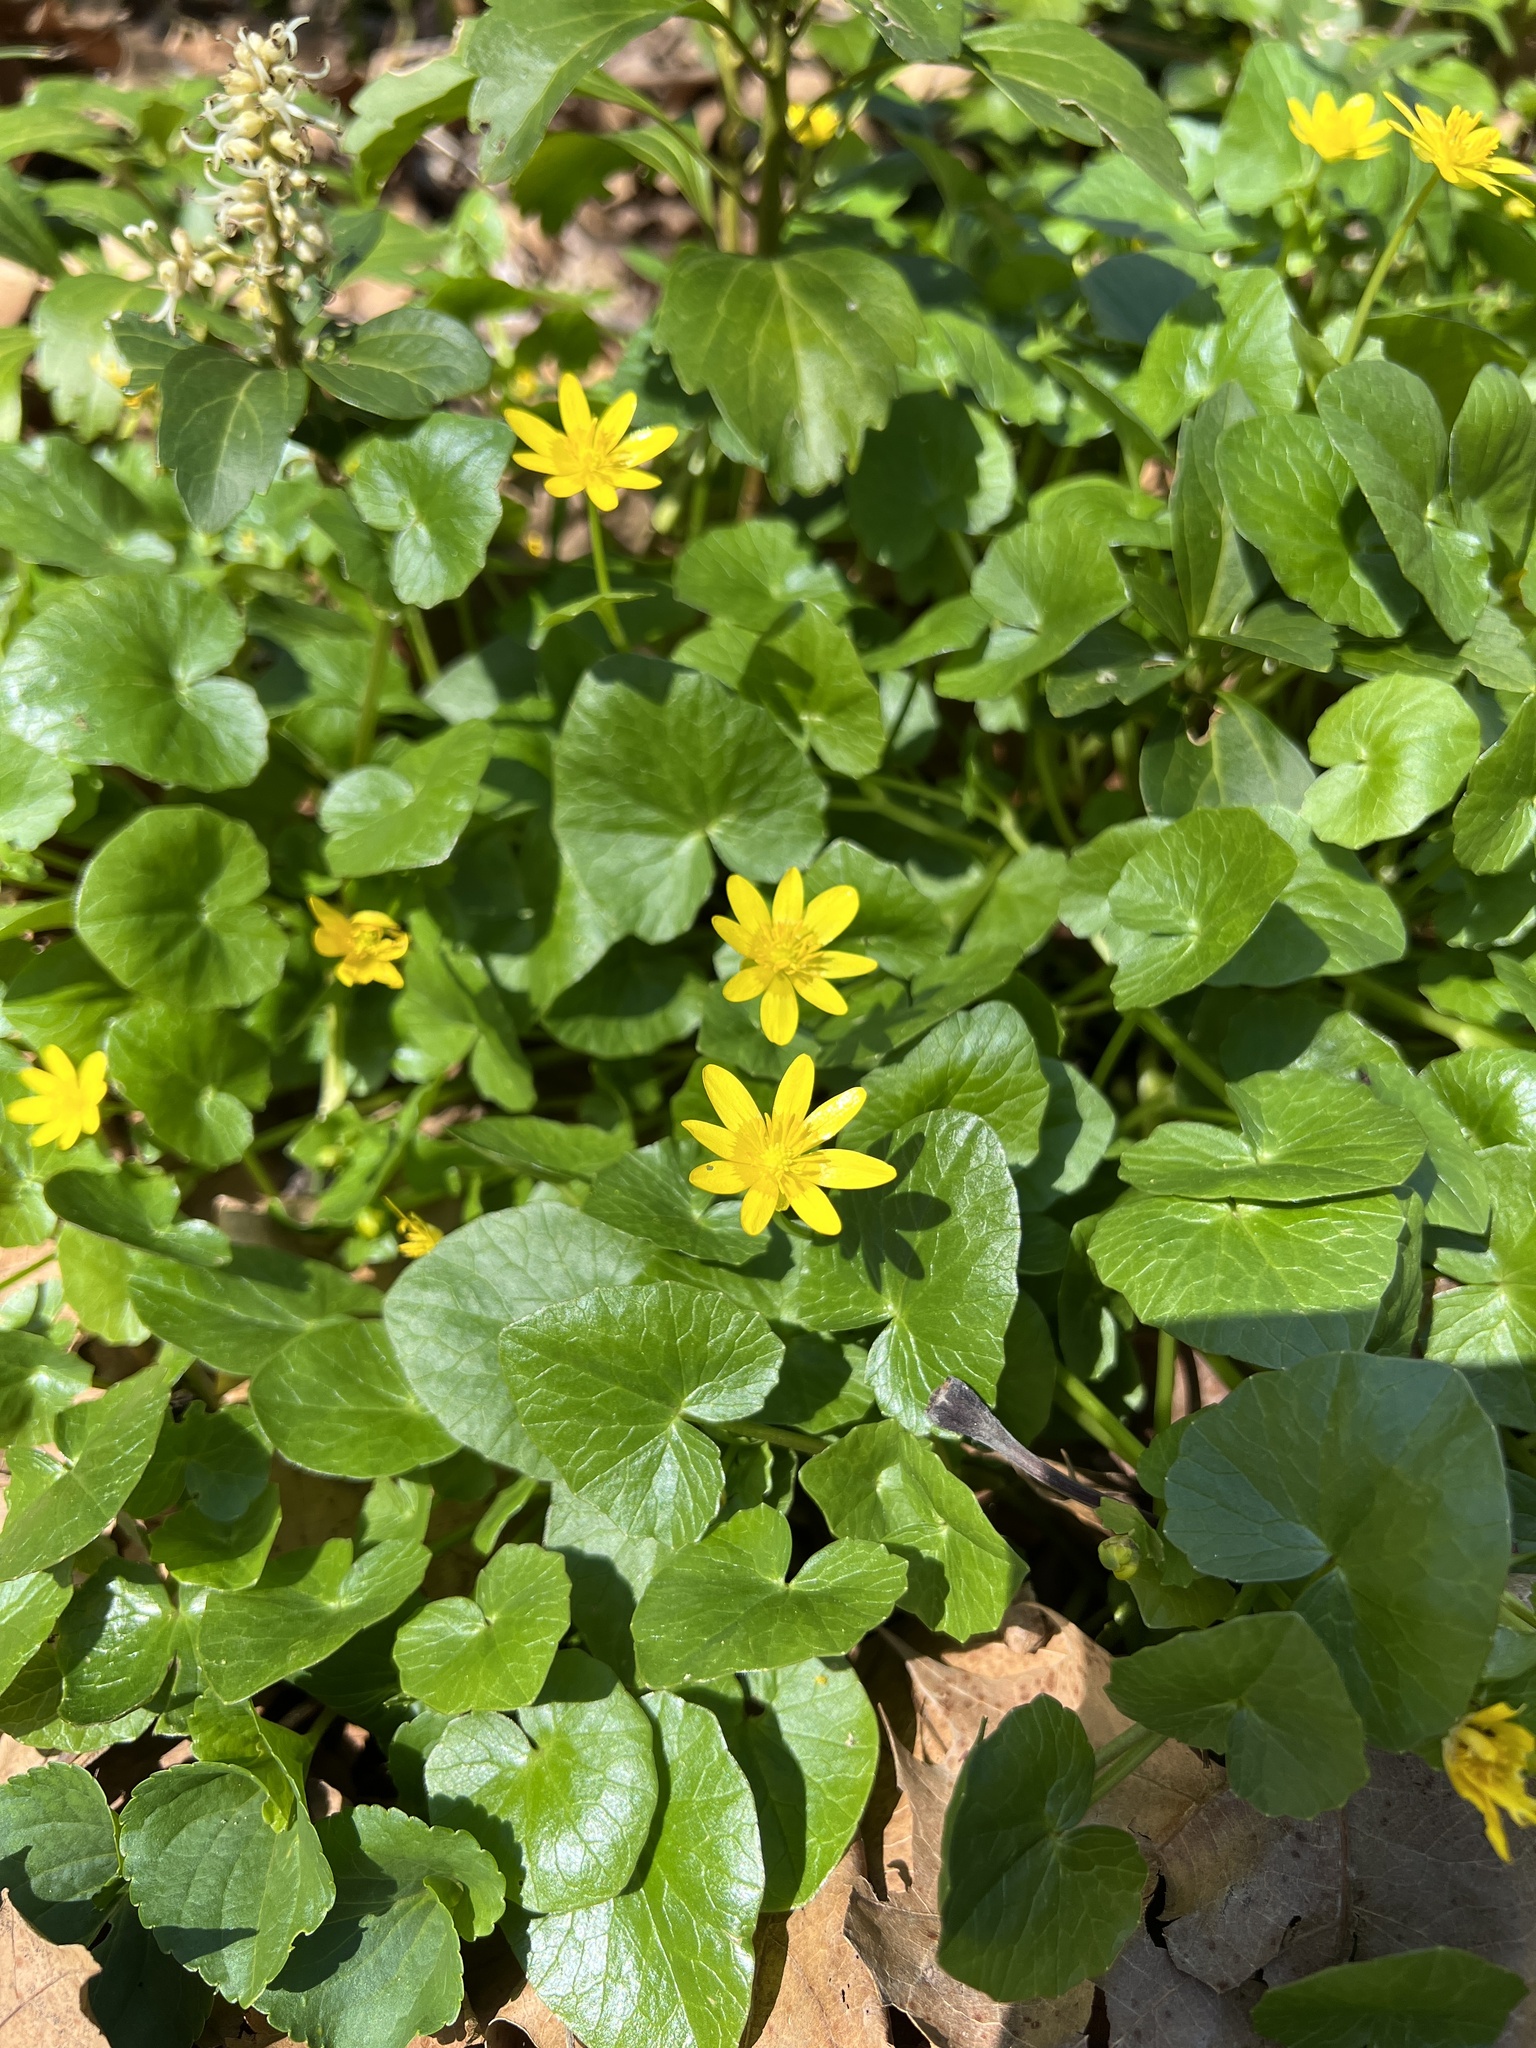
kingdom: Plantae
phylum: Tracheophyta
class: Magnoliopsida
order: Ranunculales
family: Ranunculaceae
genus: Ficaria
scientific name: Ficaria verna
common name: Lesser celandine
